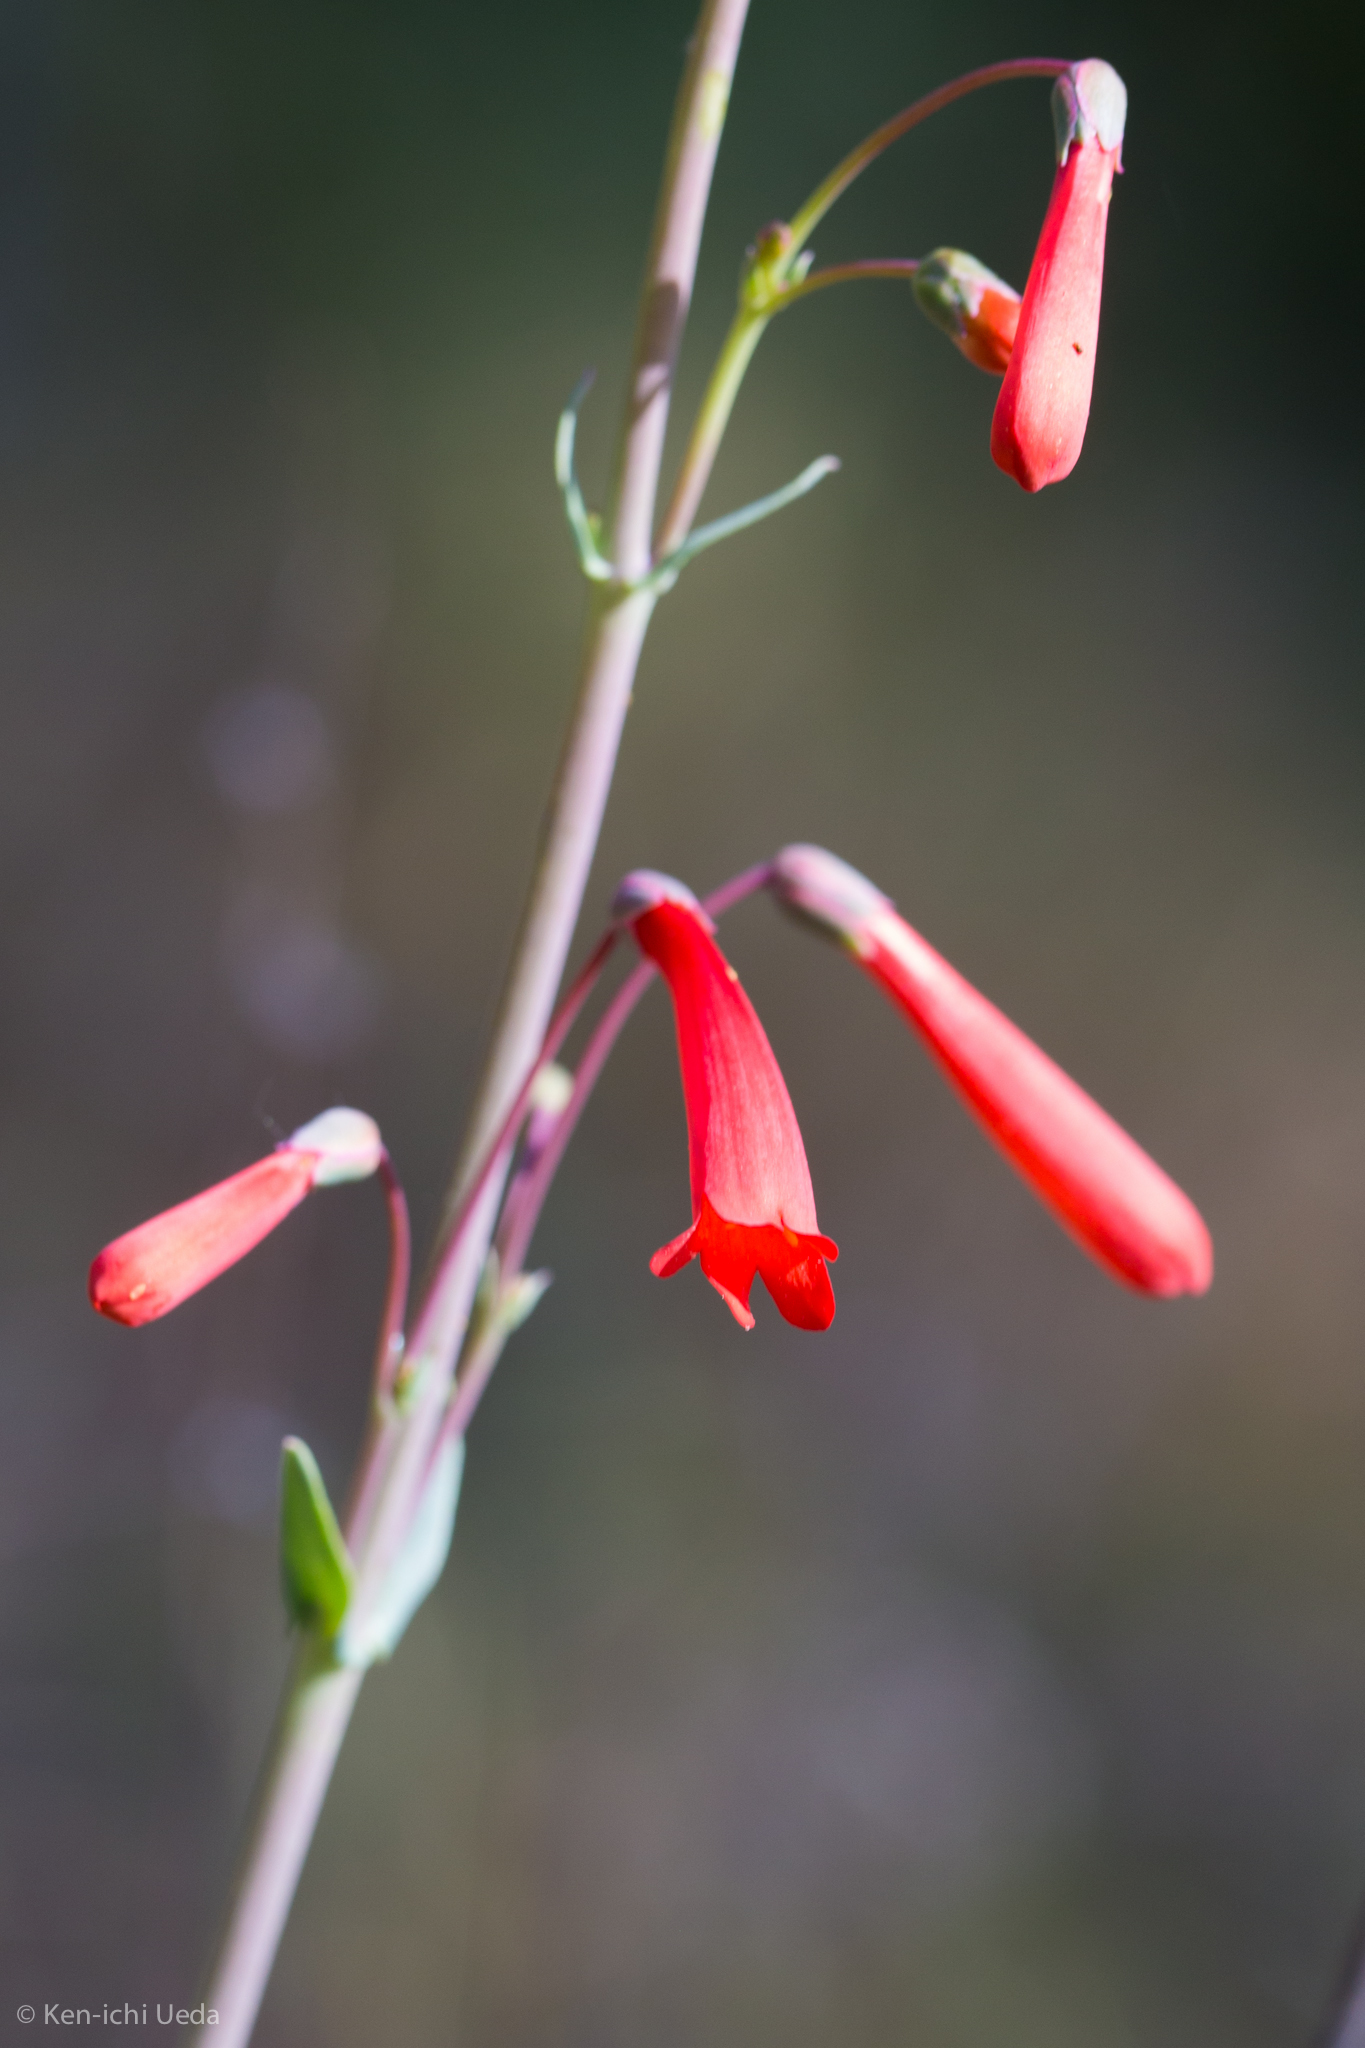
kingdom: Plantae
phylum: Tracheophyta
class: Magnoliopsida
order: Lamiales
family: Plantaginaceae
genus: Penstemon
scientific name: Penstemon centranthifolius
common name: Scarlet bugler
